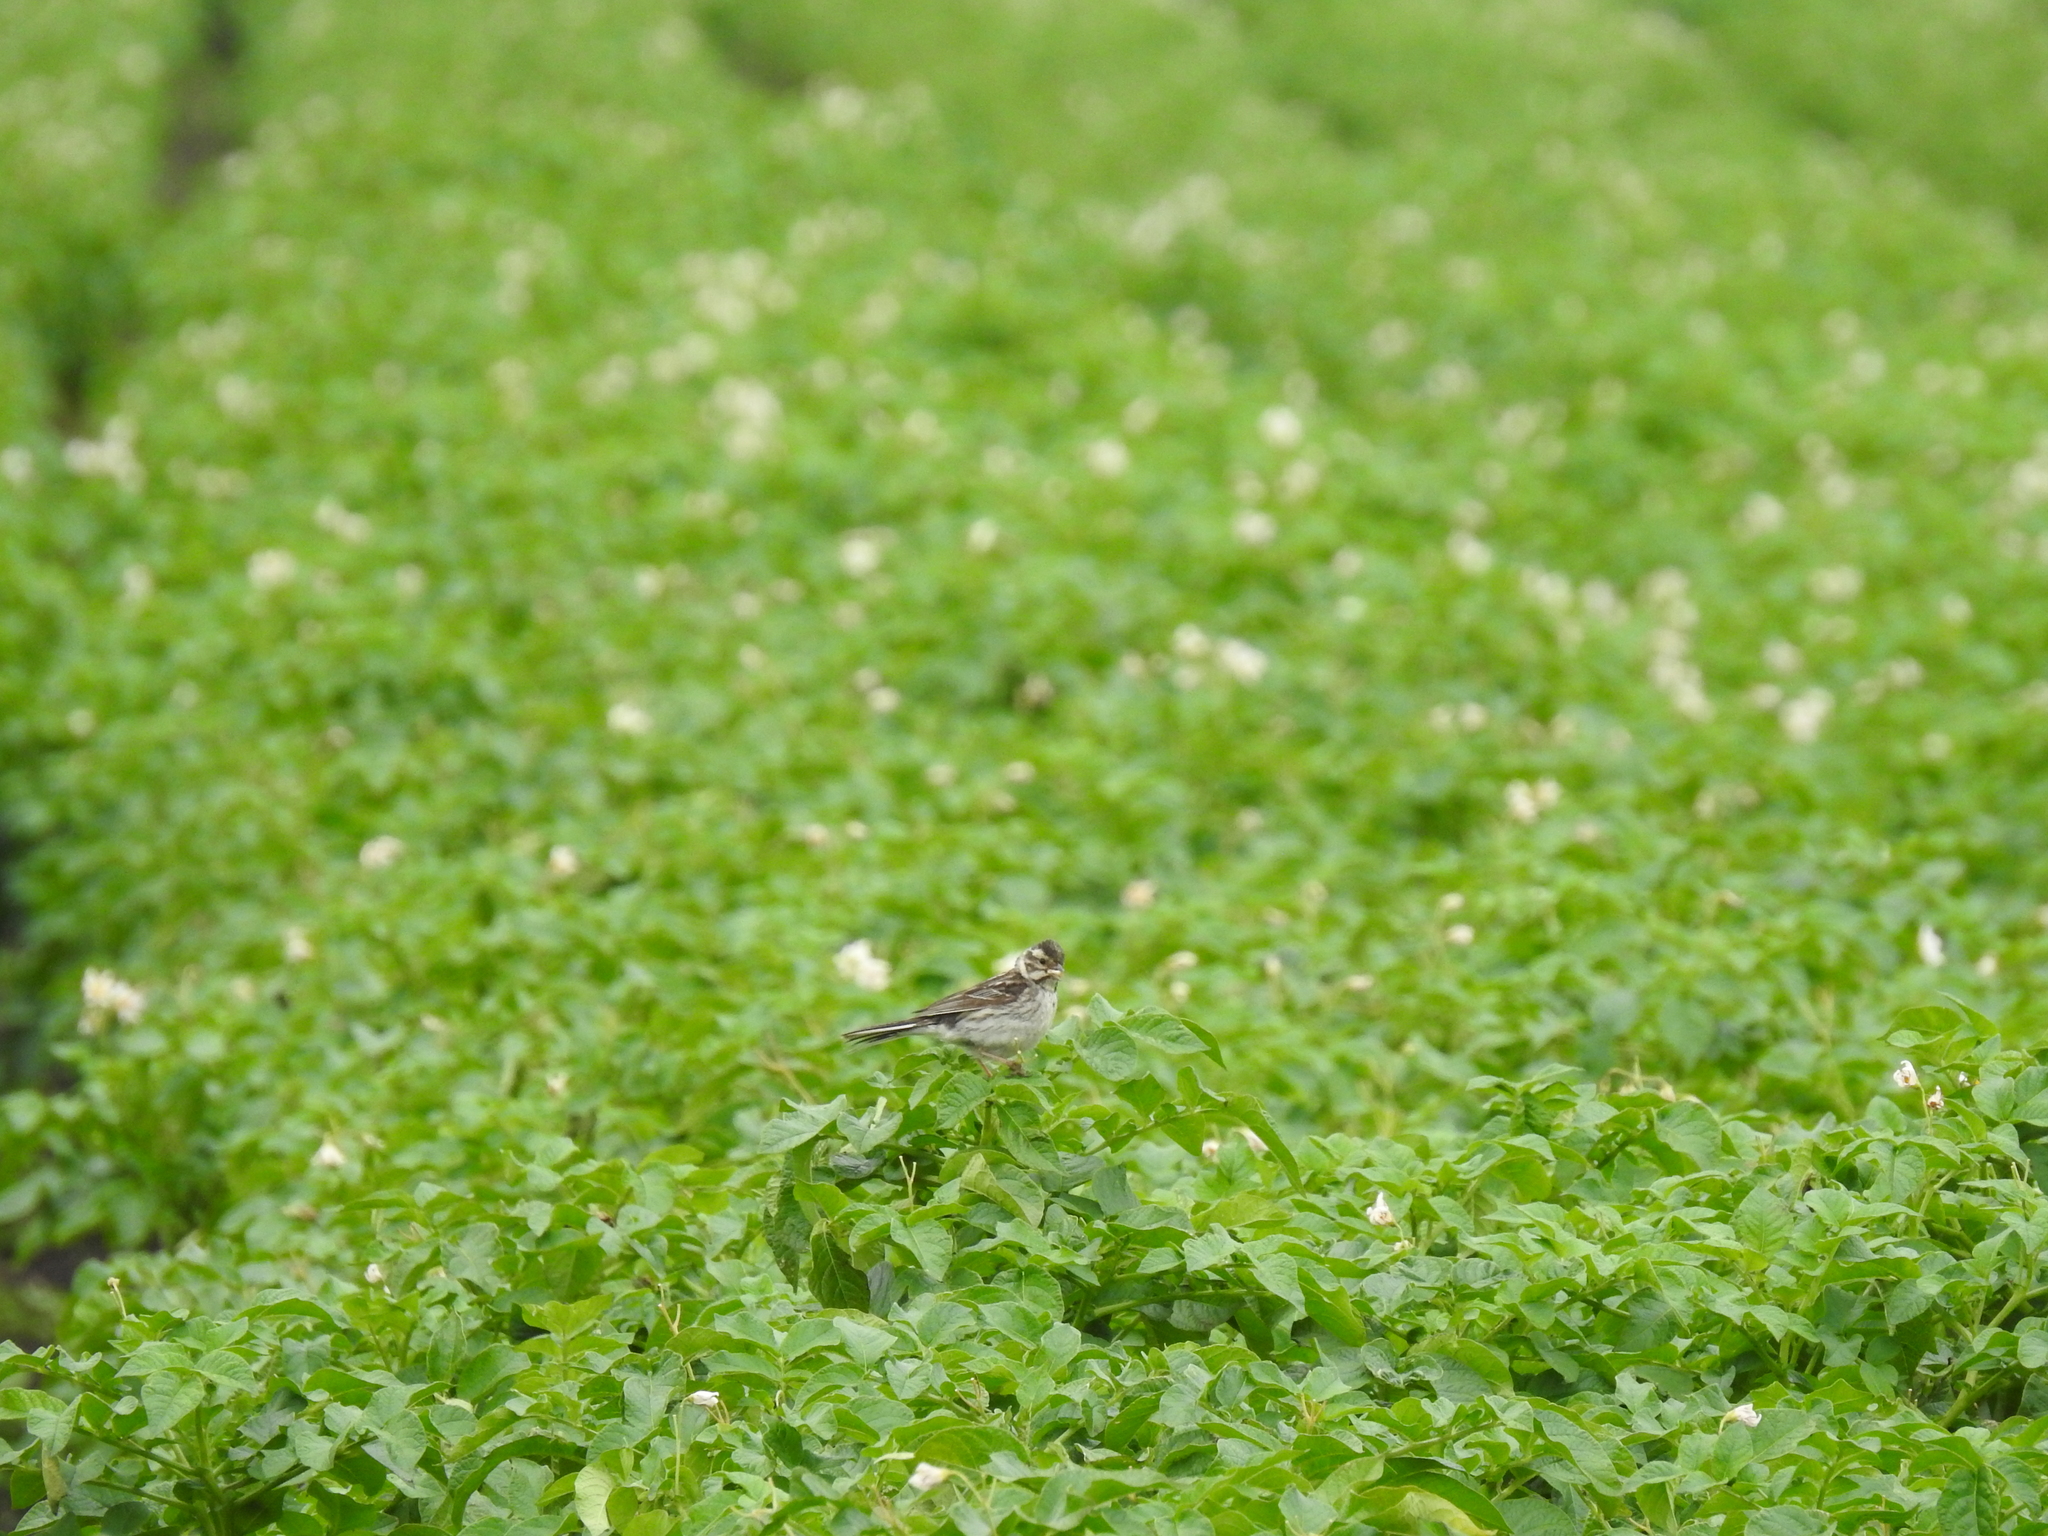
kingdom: Animalia
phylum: Chordata
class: Aves
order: Passeriformes
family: Emberizidae
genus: Emberiza
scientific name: Emberiza schoeniclus
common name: Reed bunting
